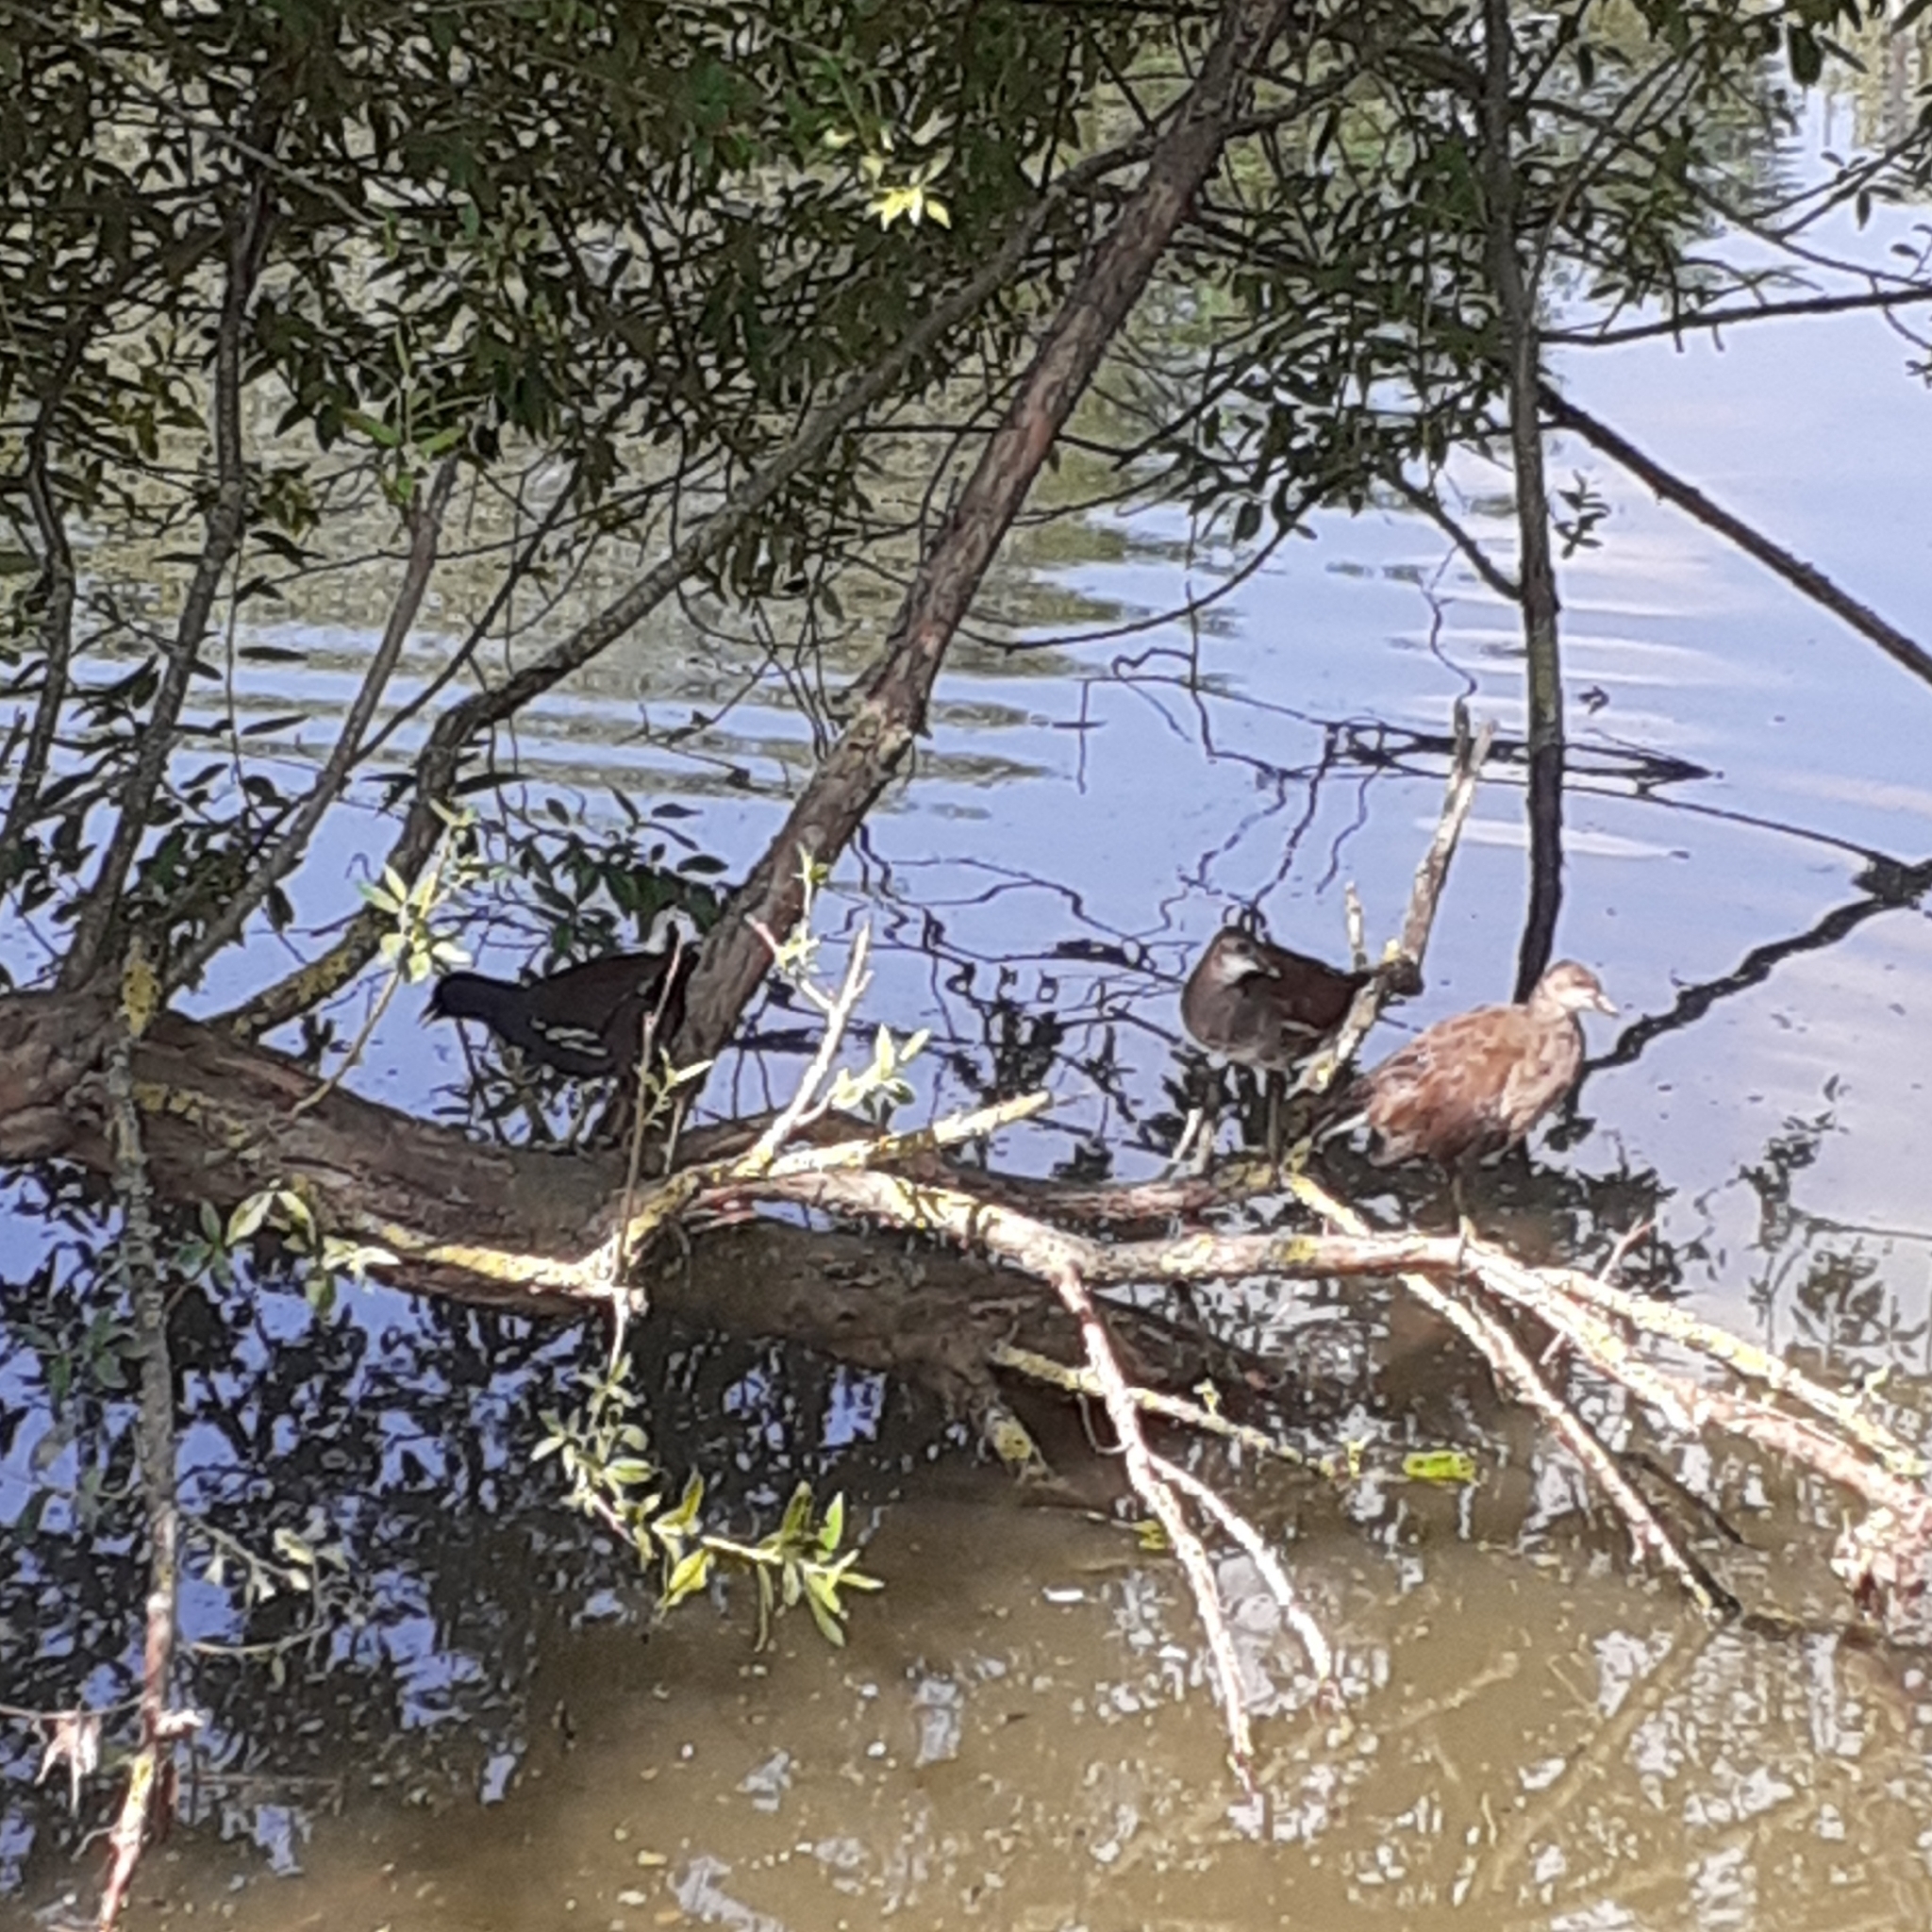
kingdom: Animalia
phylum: Chordata
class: Aves
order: Gruiformes
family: Rallidae
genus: Gallinula
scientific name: Gallinula chloropus
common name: Common moorhen
